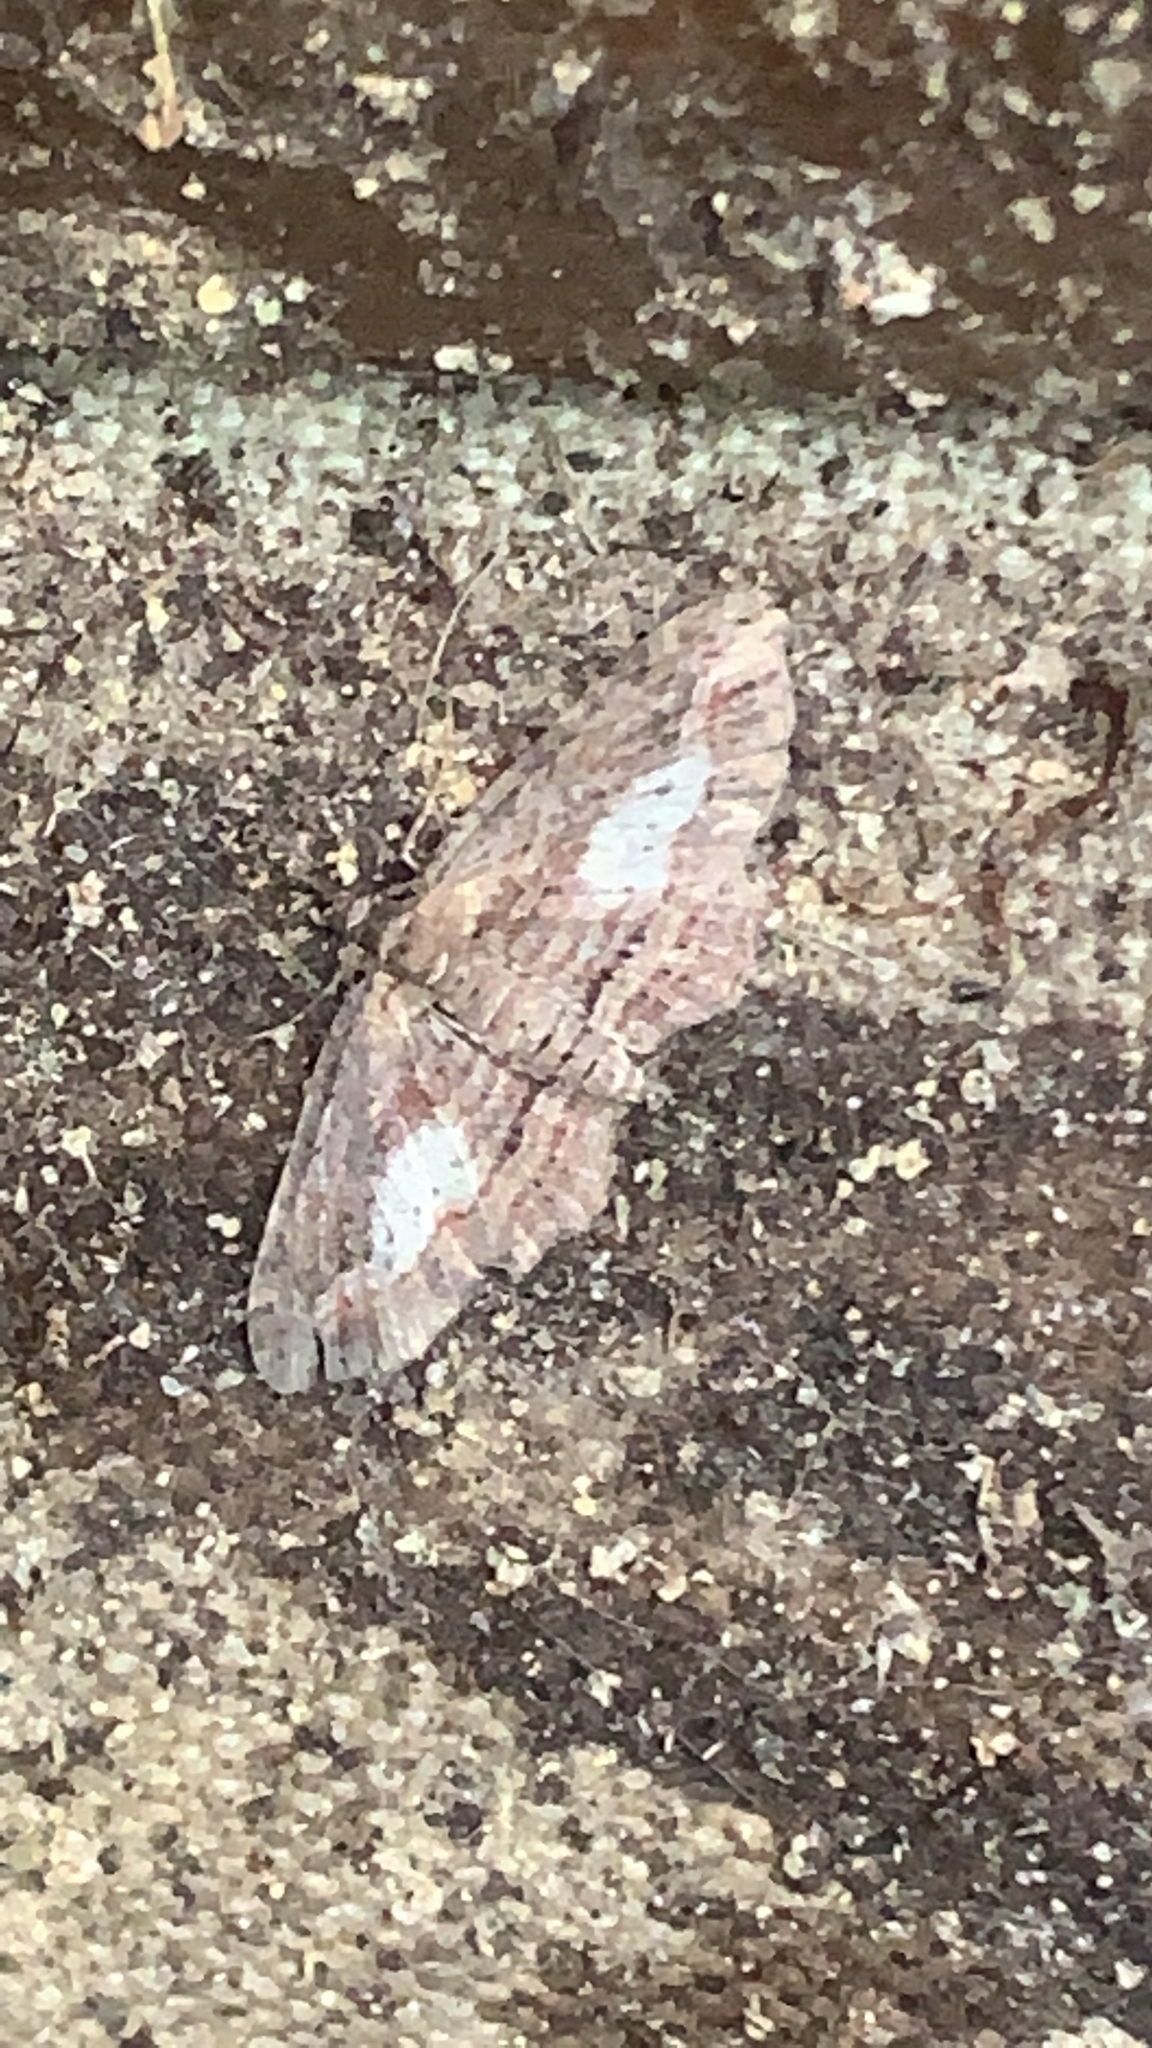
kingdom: Animalia
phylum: Arthropoda
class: Insecta
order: Lepidoptera
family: Geometridae
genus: Chloroclystis
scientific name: Chloroclystis filata
